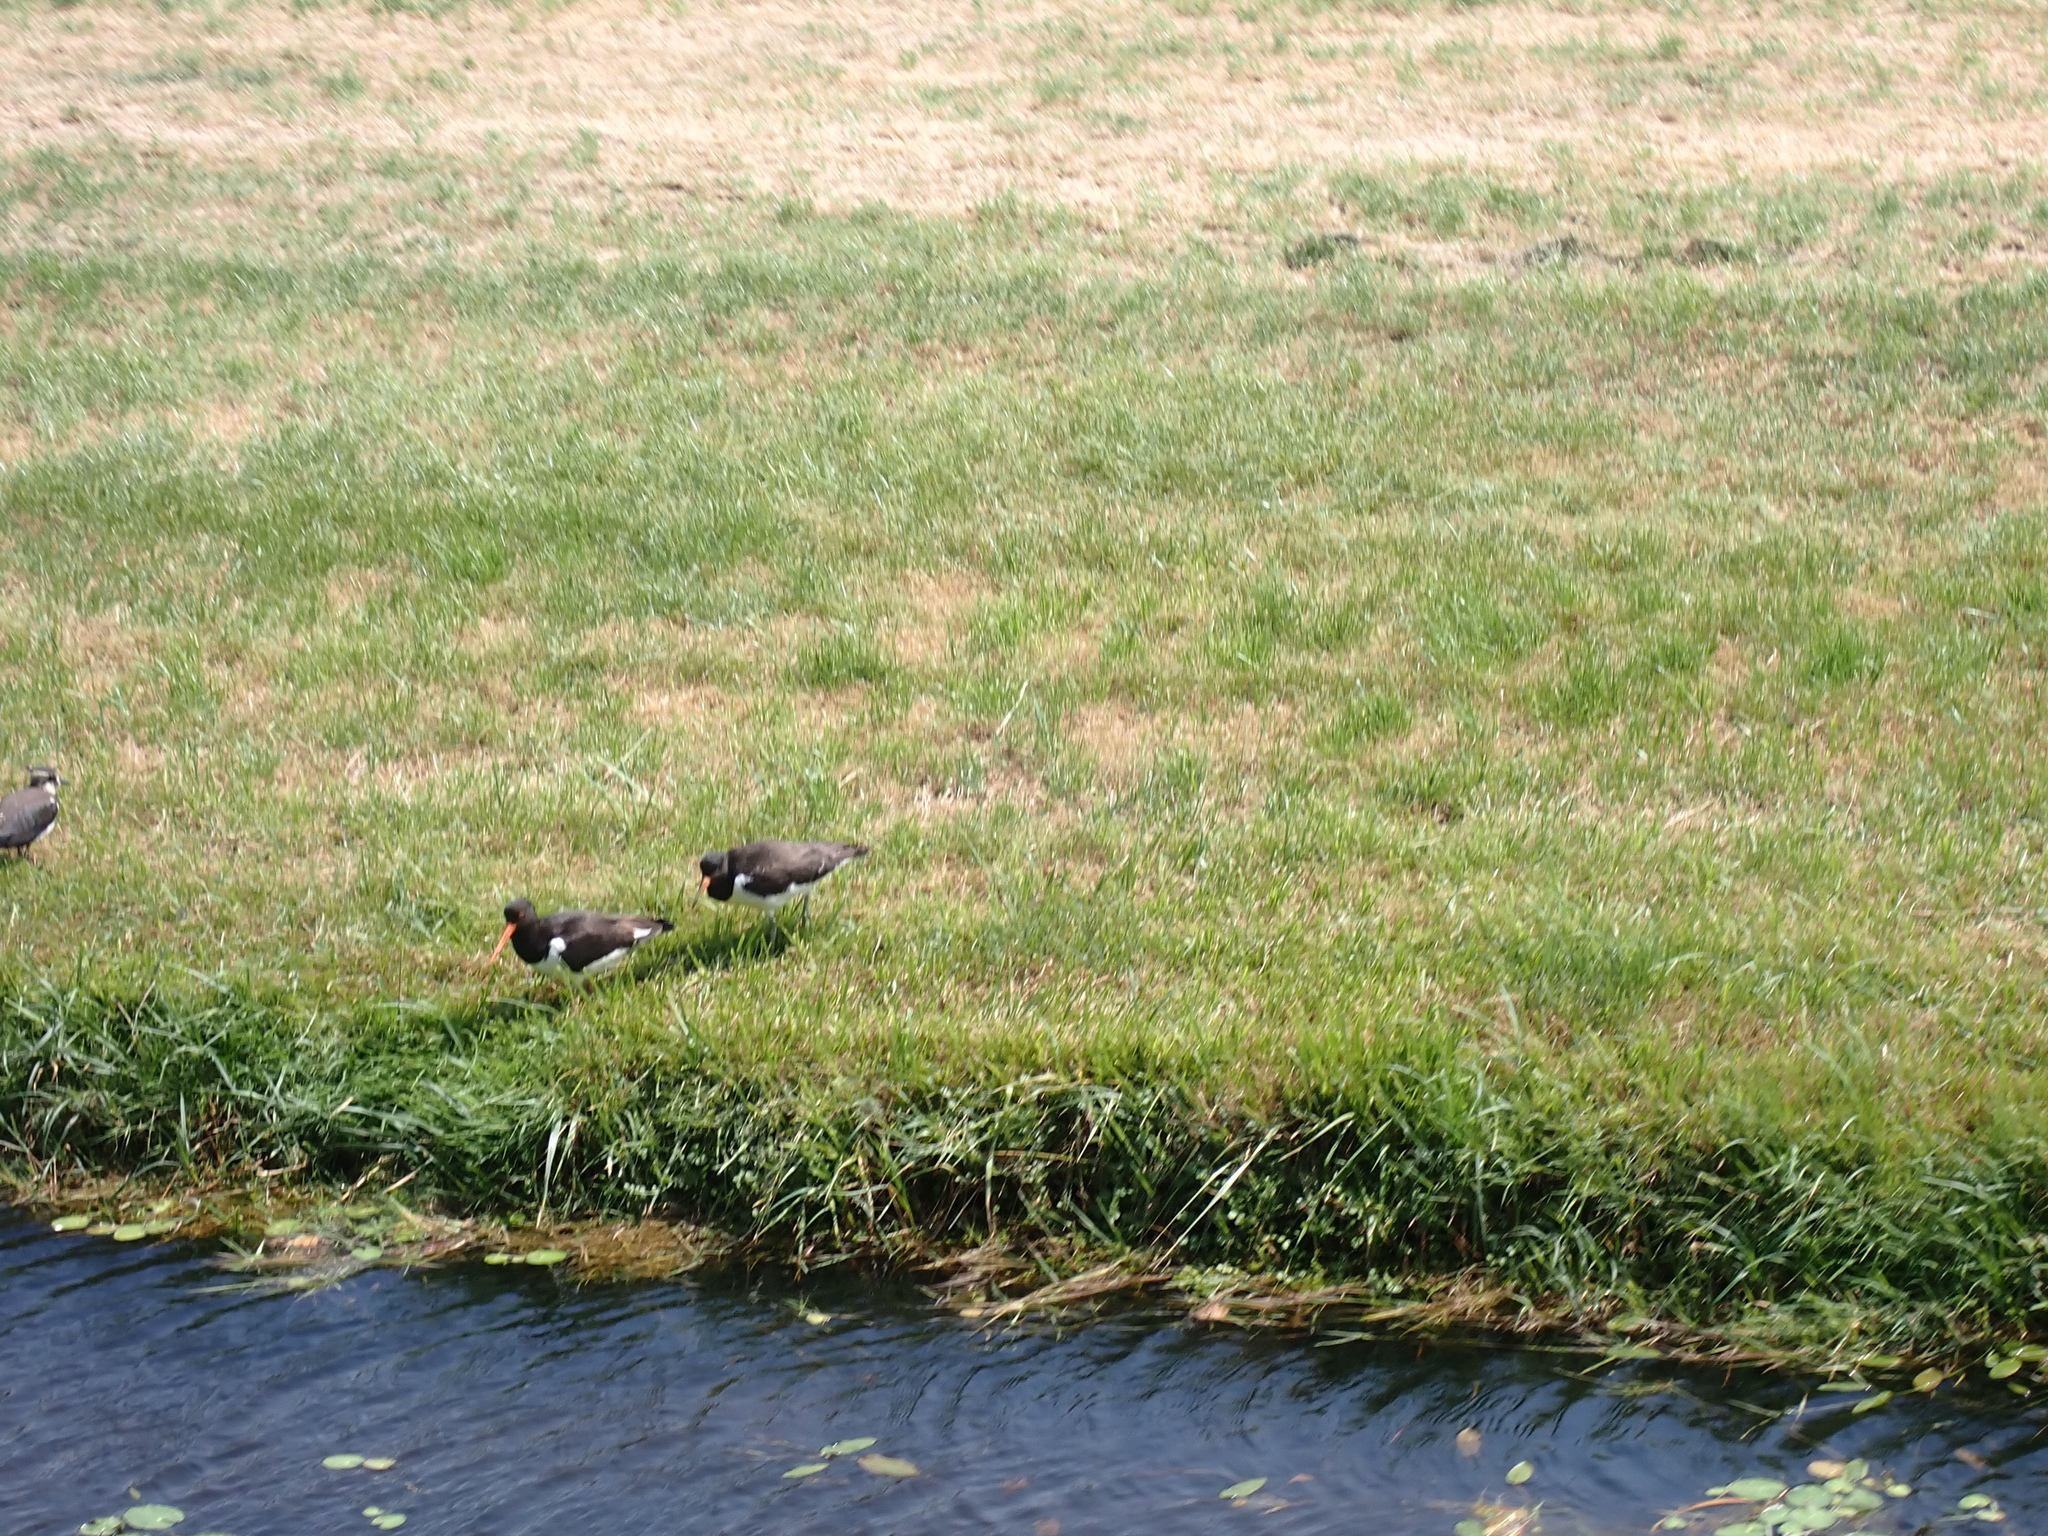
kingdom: Animalia
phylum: Chordata
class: Aves
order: Charadriiformes
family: Haematopodidae
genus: Haematopus
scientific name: Haematopus ostralegus
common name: Eurasian oystercatcher
